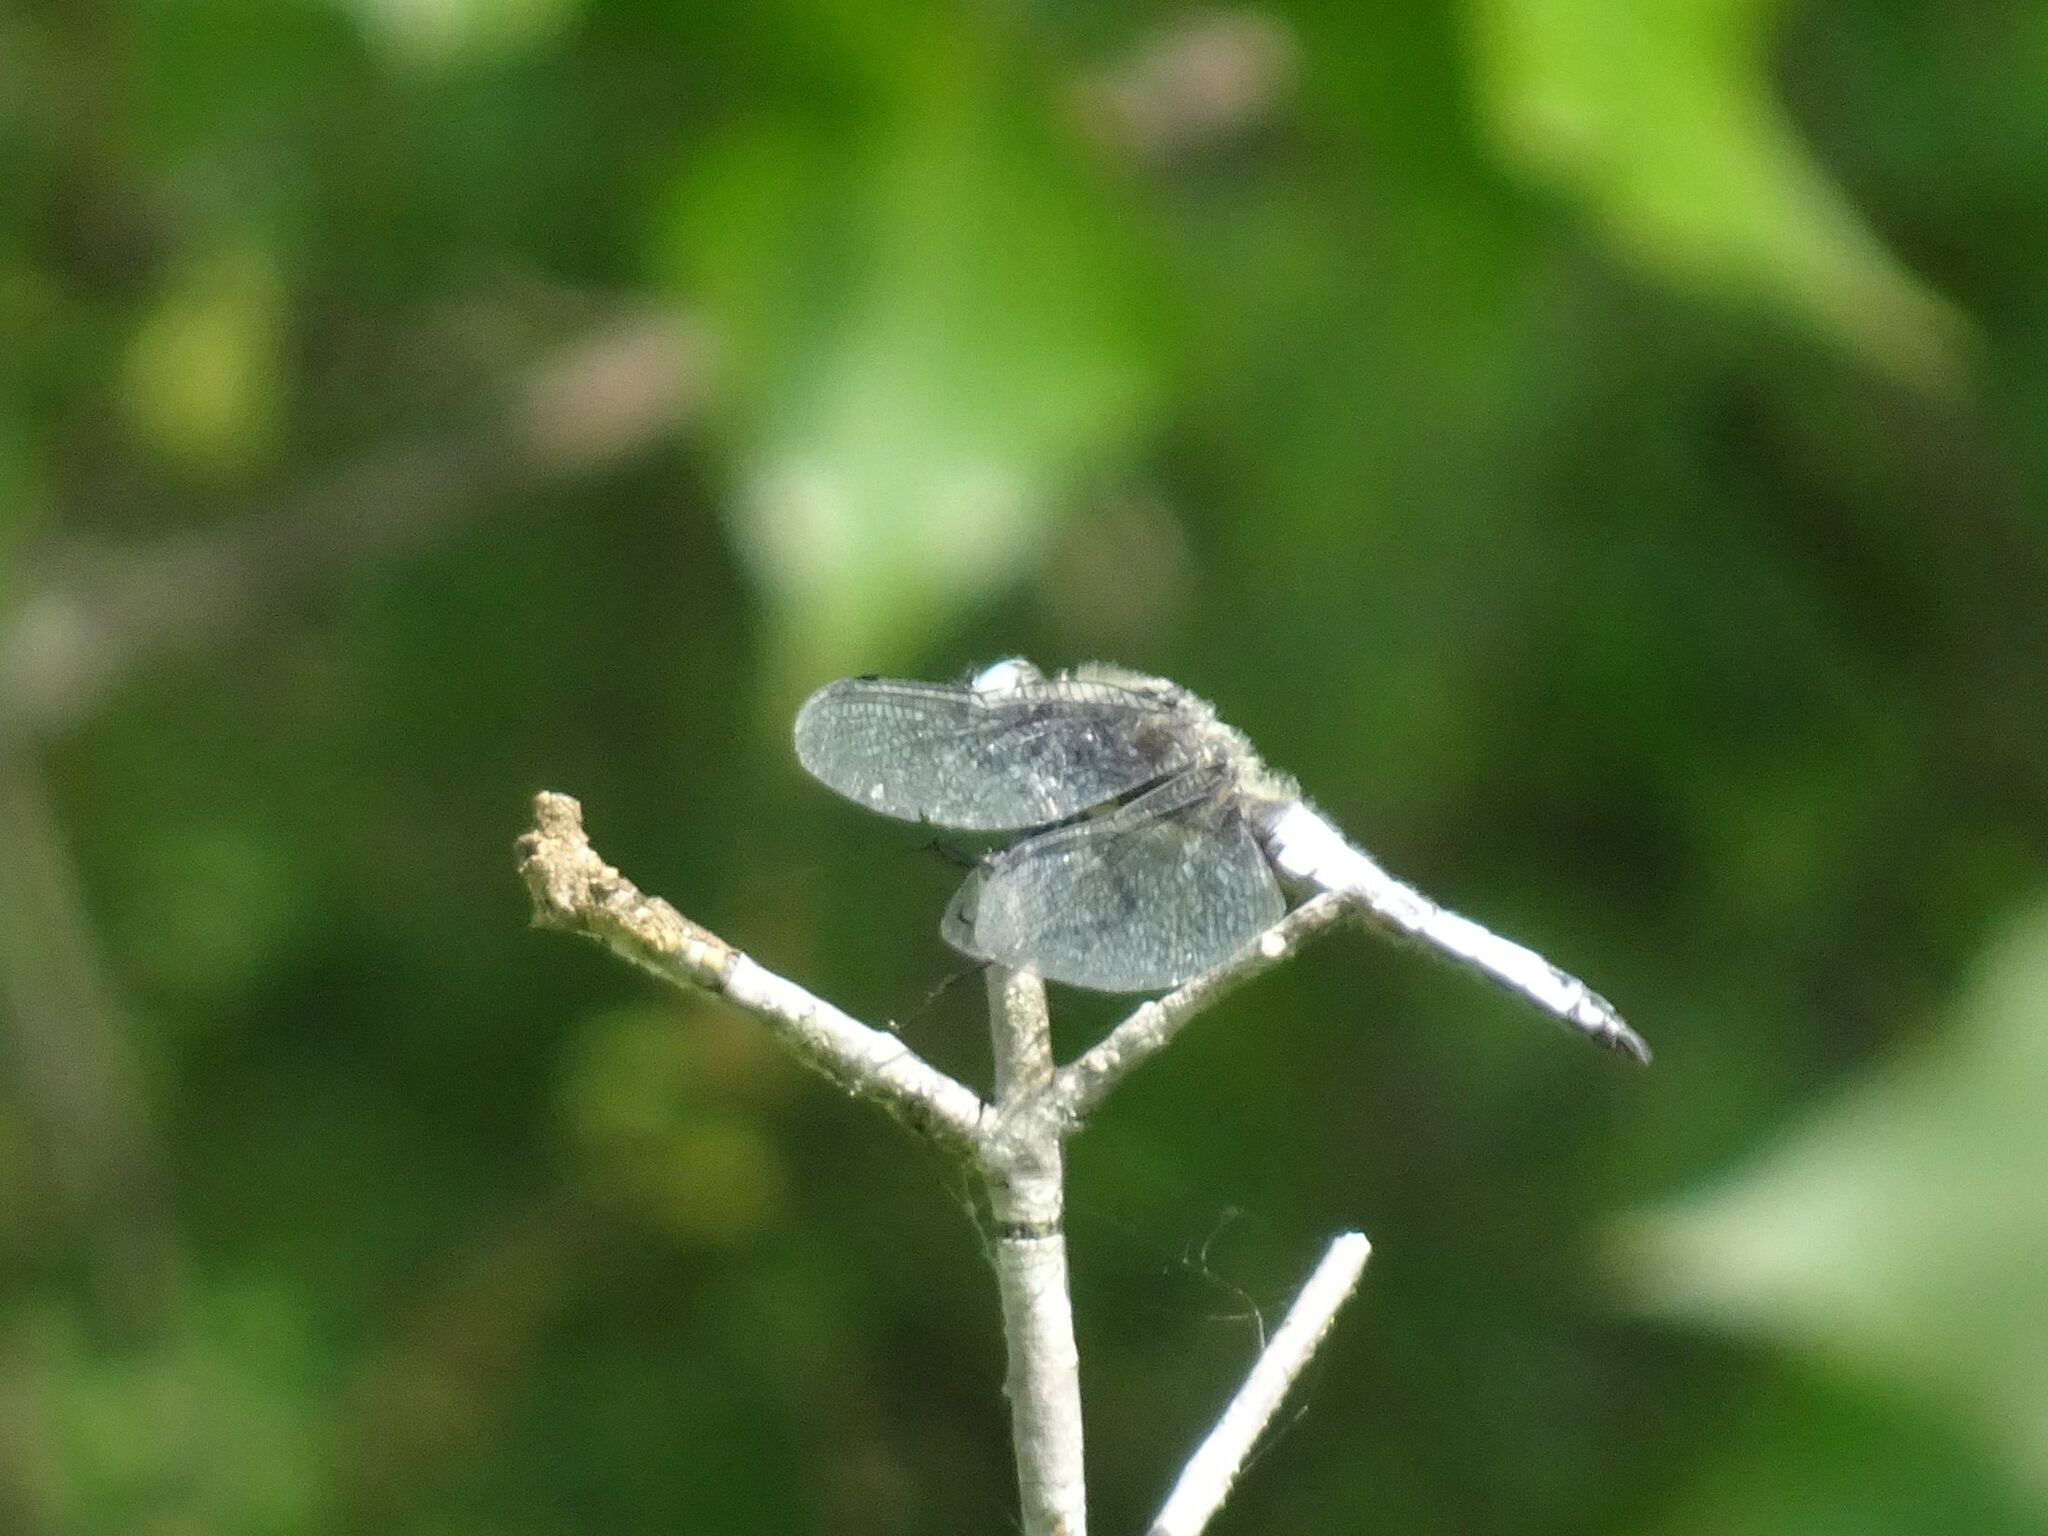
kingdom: Animalia
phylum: Arthropoda
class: Insecta
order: Odonata
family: Libellulidae
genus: Libellula
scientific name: Libellula fulva
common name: Blue chaser
